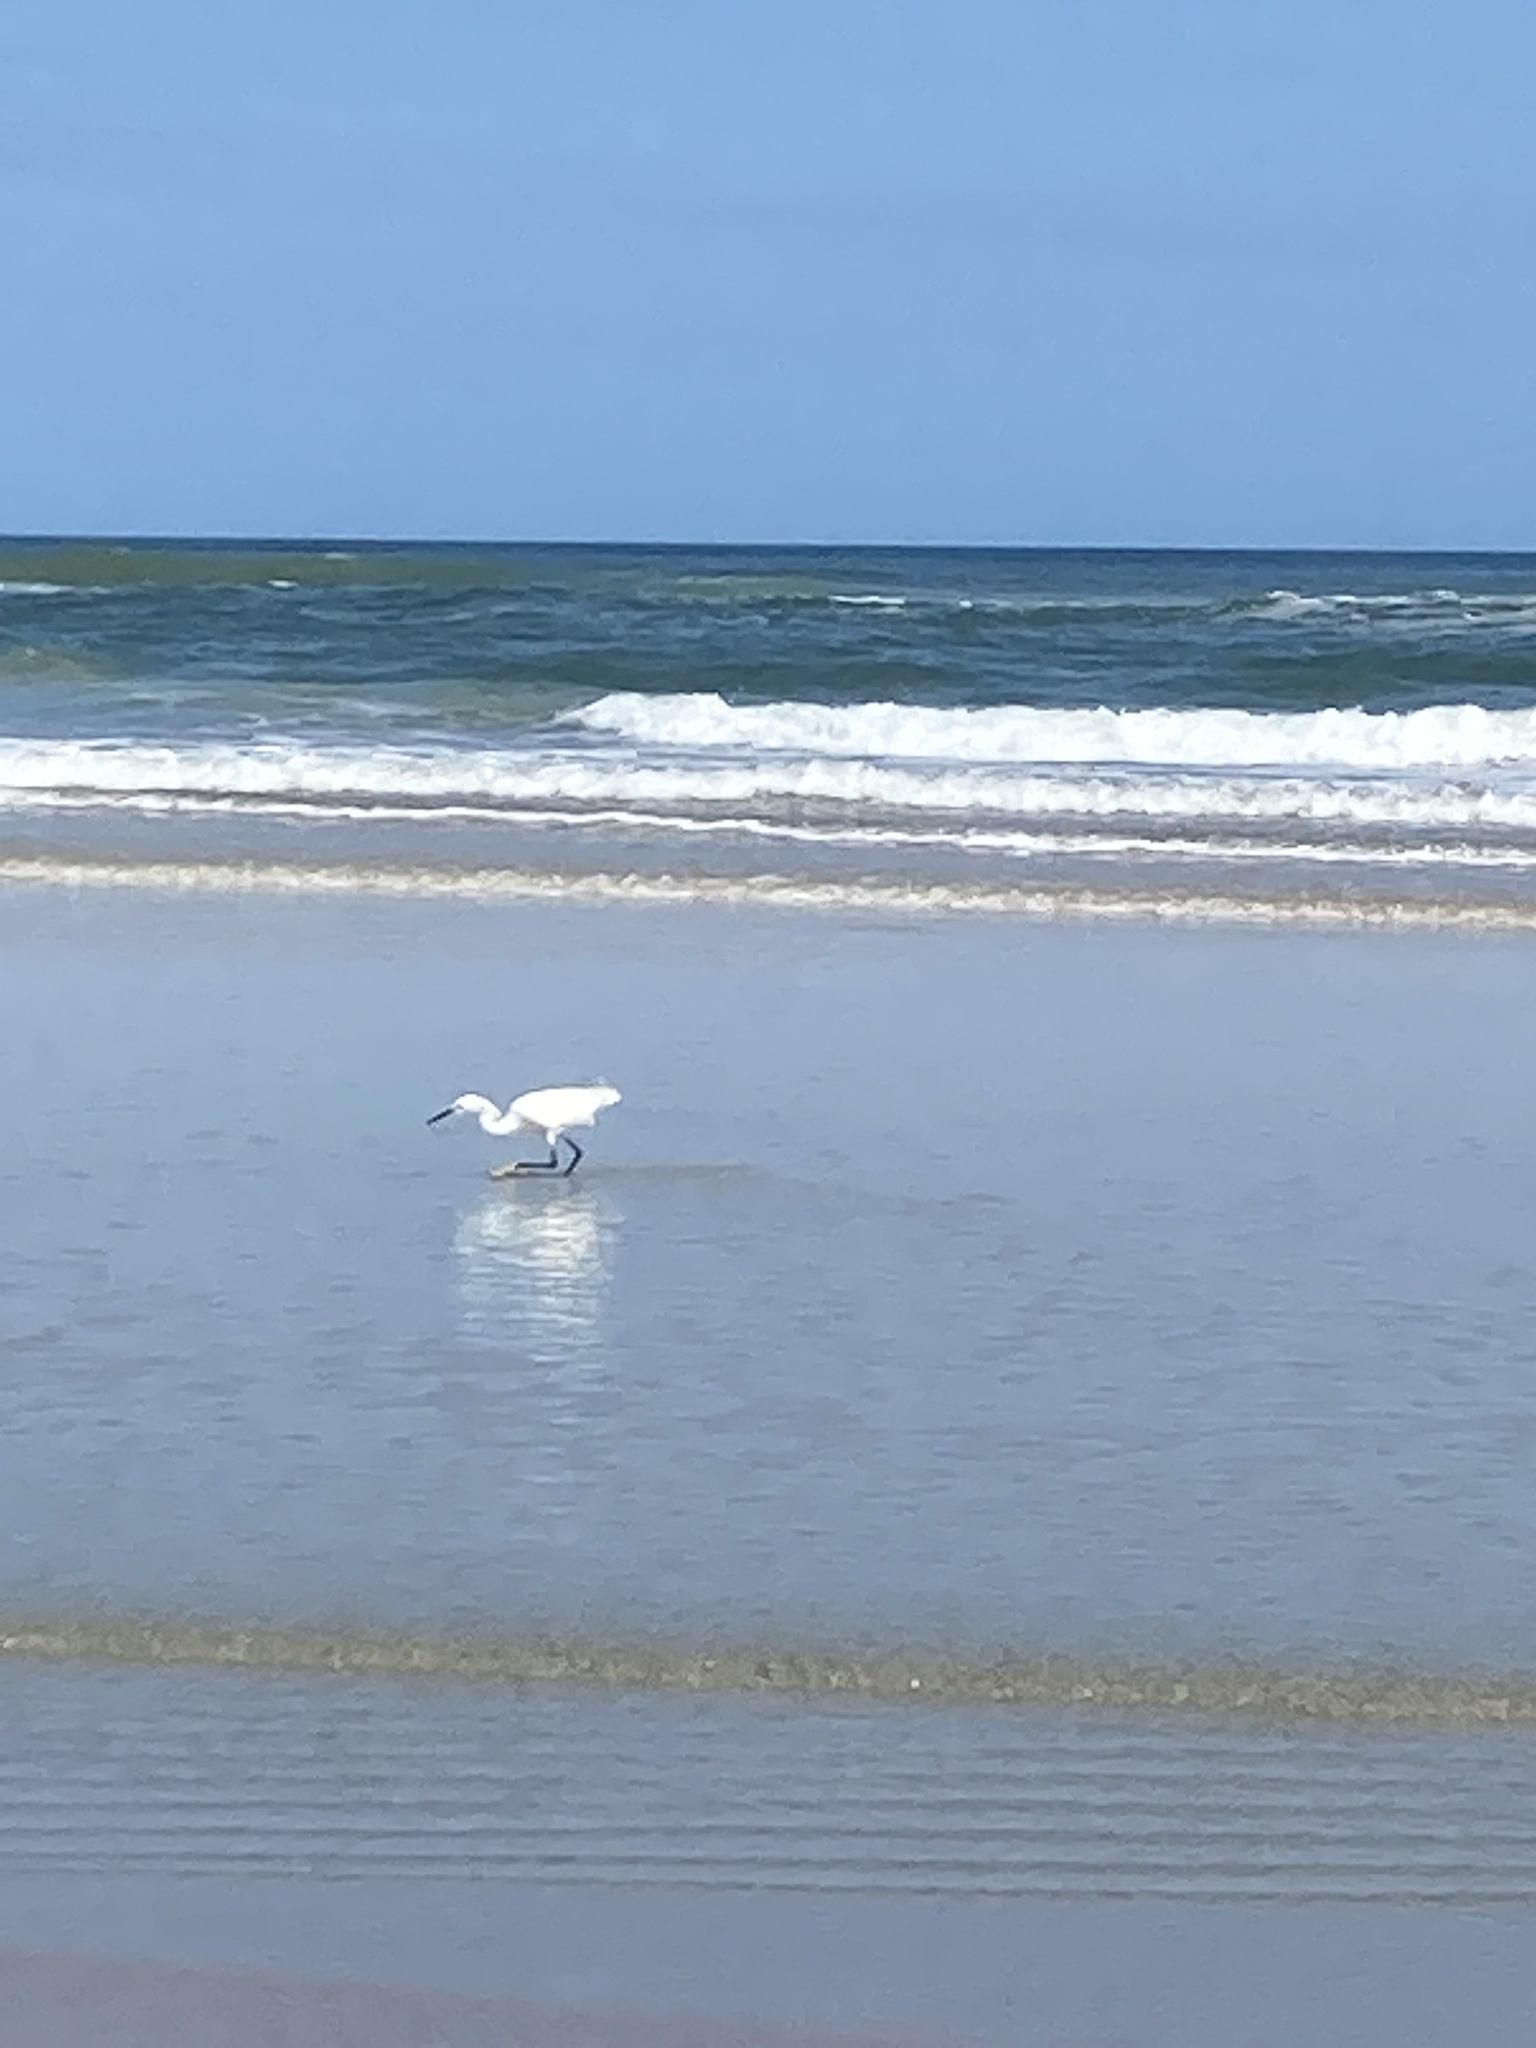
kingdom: Animalia
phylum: Chordata
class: Aves
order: Pelecaniformes
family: Ardeidae
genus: Egretta
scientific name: Egretta thula
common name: Snowy egret
